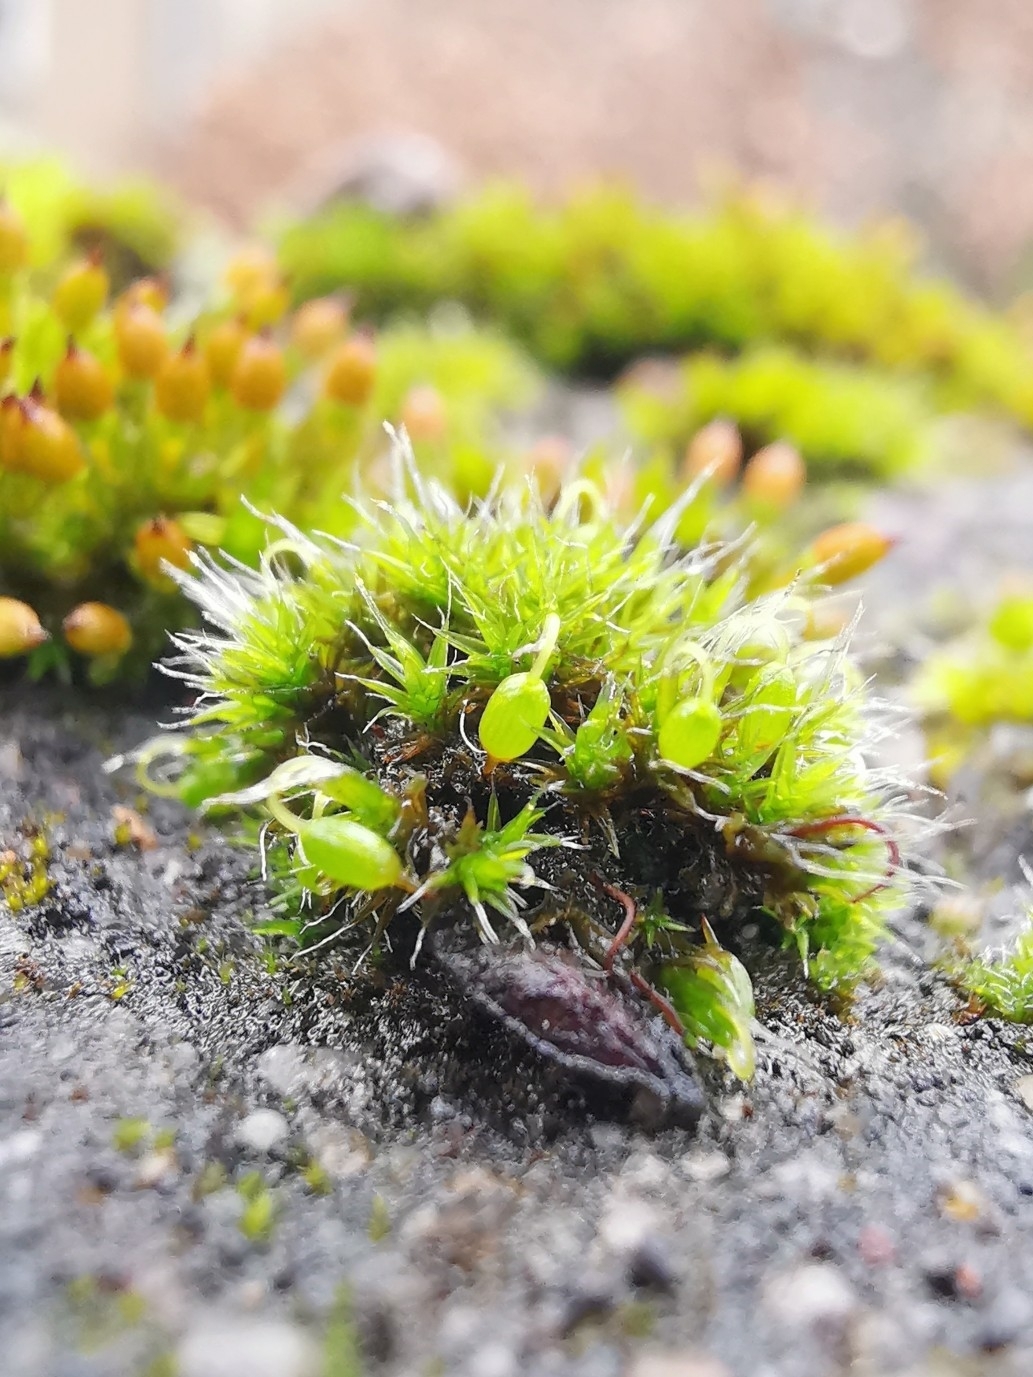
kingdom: Plantae
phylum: Bryophyta
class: Bryopsida
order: Grimmiales
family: Grimmiaceae
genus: Grimmia
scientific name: Grimmia pulvinata
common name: Grey-cushioned grimmia
